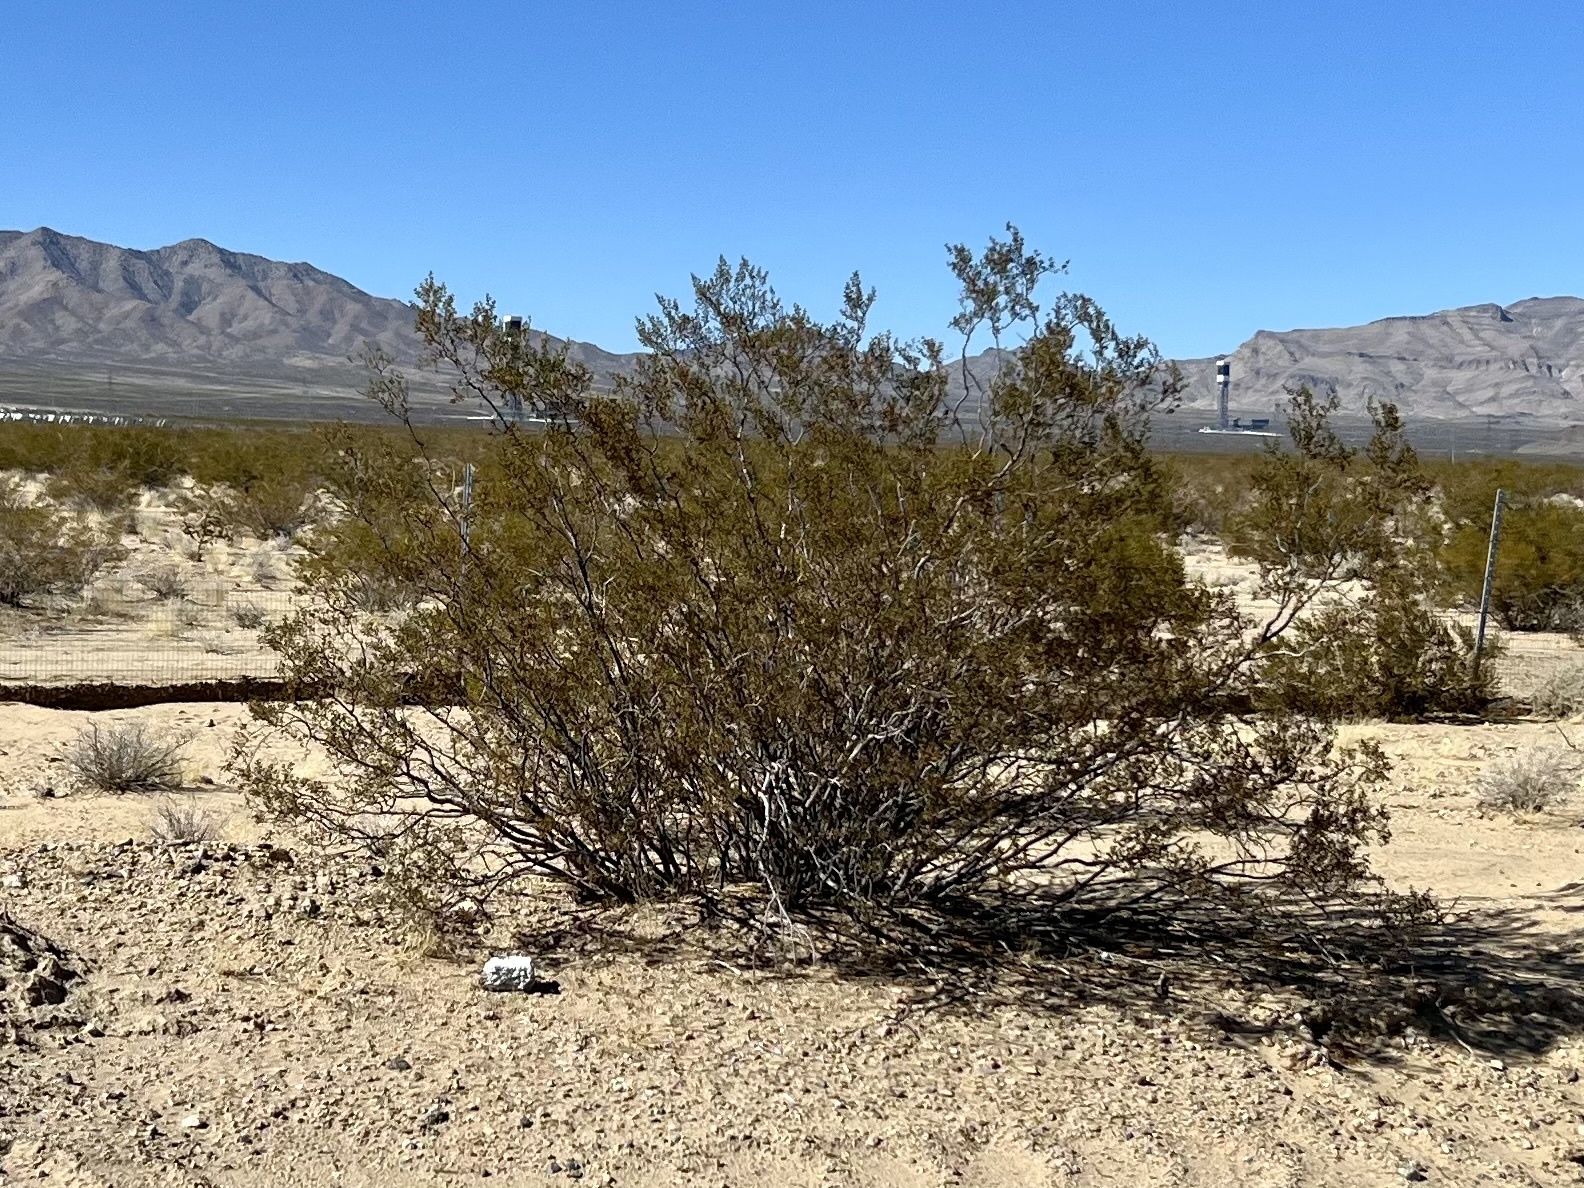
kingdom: Plantae
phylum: Tracheophyta
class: Magnoliopsida
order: Zygophyllales
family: Zygophyllaceae
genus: Larrea
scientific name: Larrea tridentata
